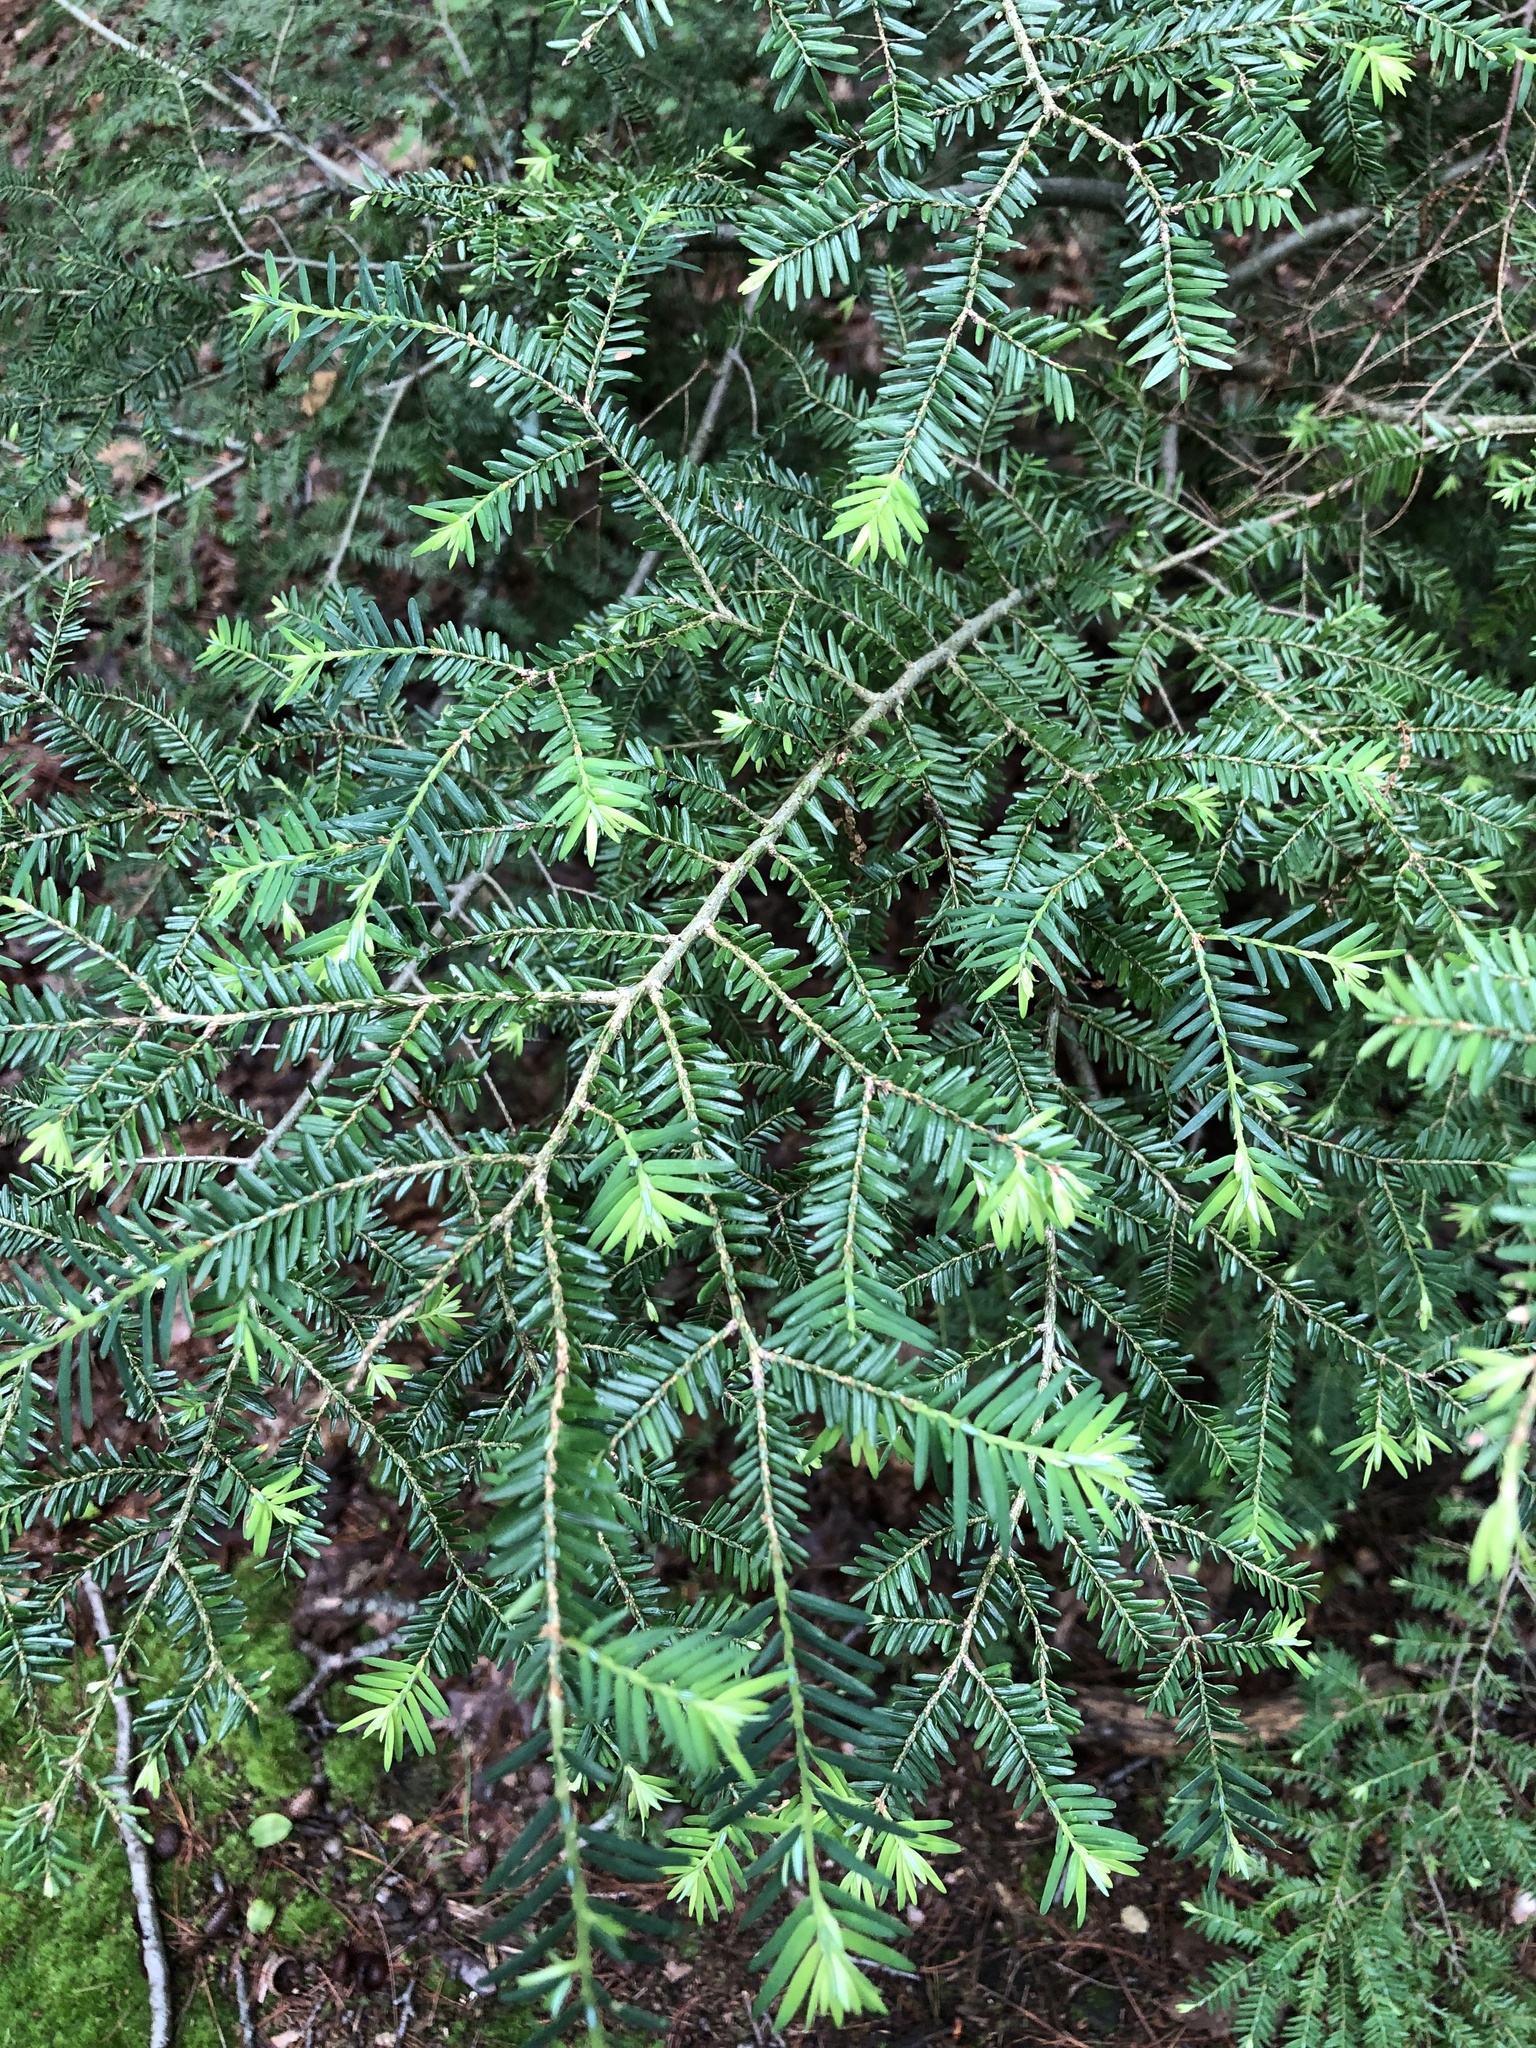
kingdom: Plantae
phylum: Tracheophyta
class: Pinopsida
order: Pinales
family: Pinaceae
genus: Tsuga
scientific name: Tsuga canadensis
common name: Eastern hemlock
